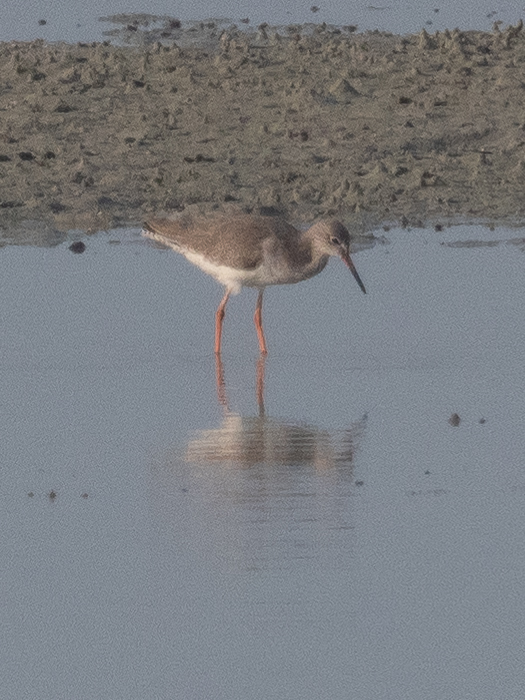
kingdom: Animalia
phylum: Chordata
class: Aves
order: Charadriiformes
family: Scolopacidae
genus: Tringa
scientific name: Tringa totanus
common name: Common redshank
